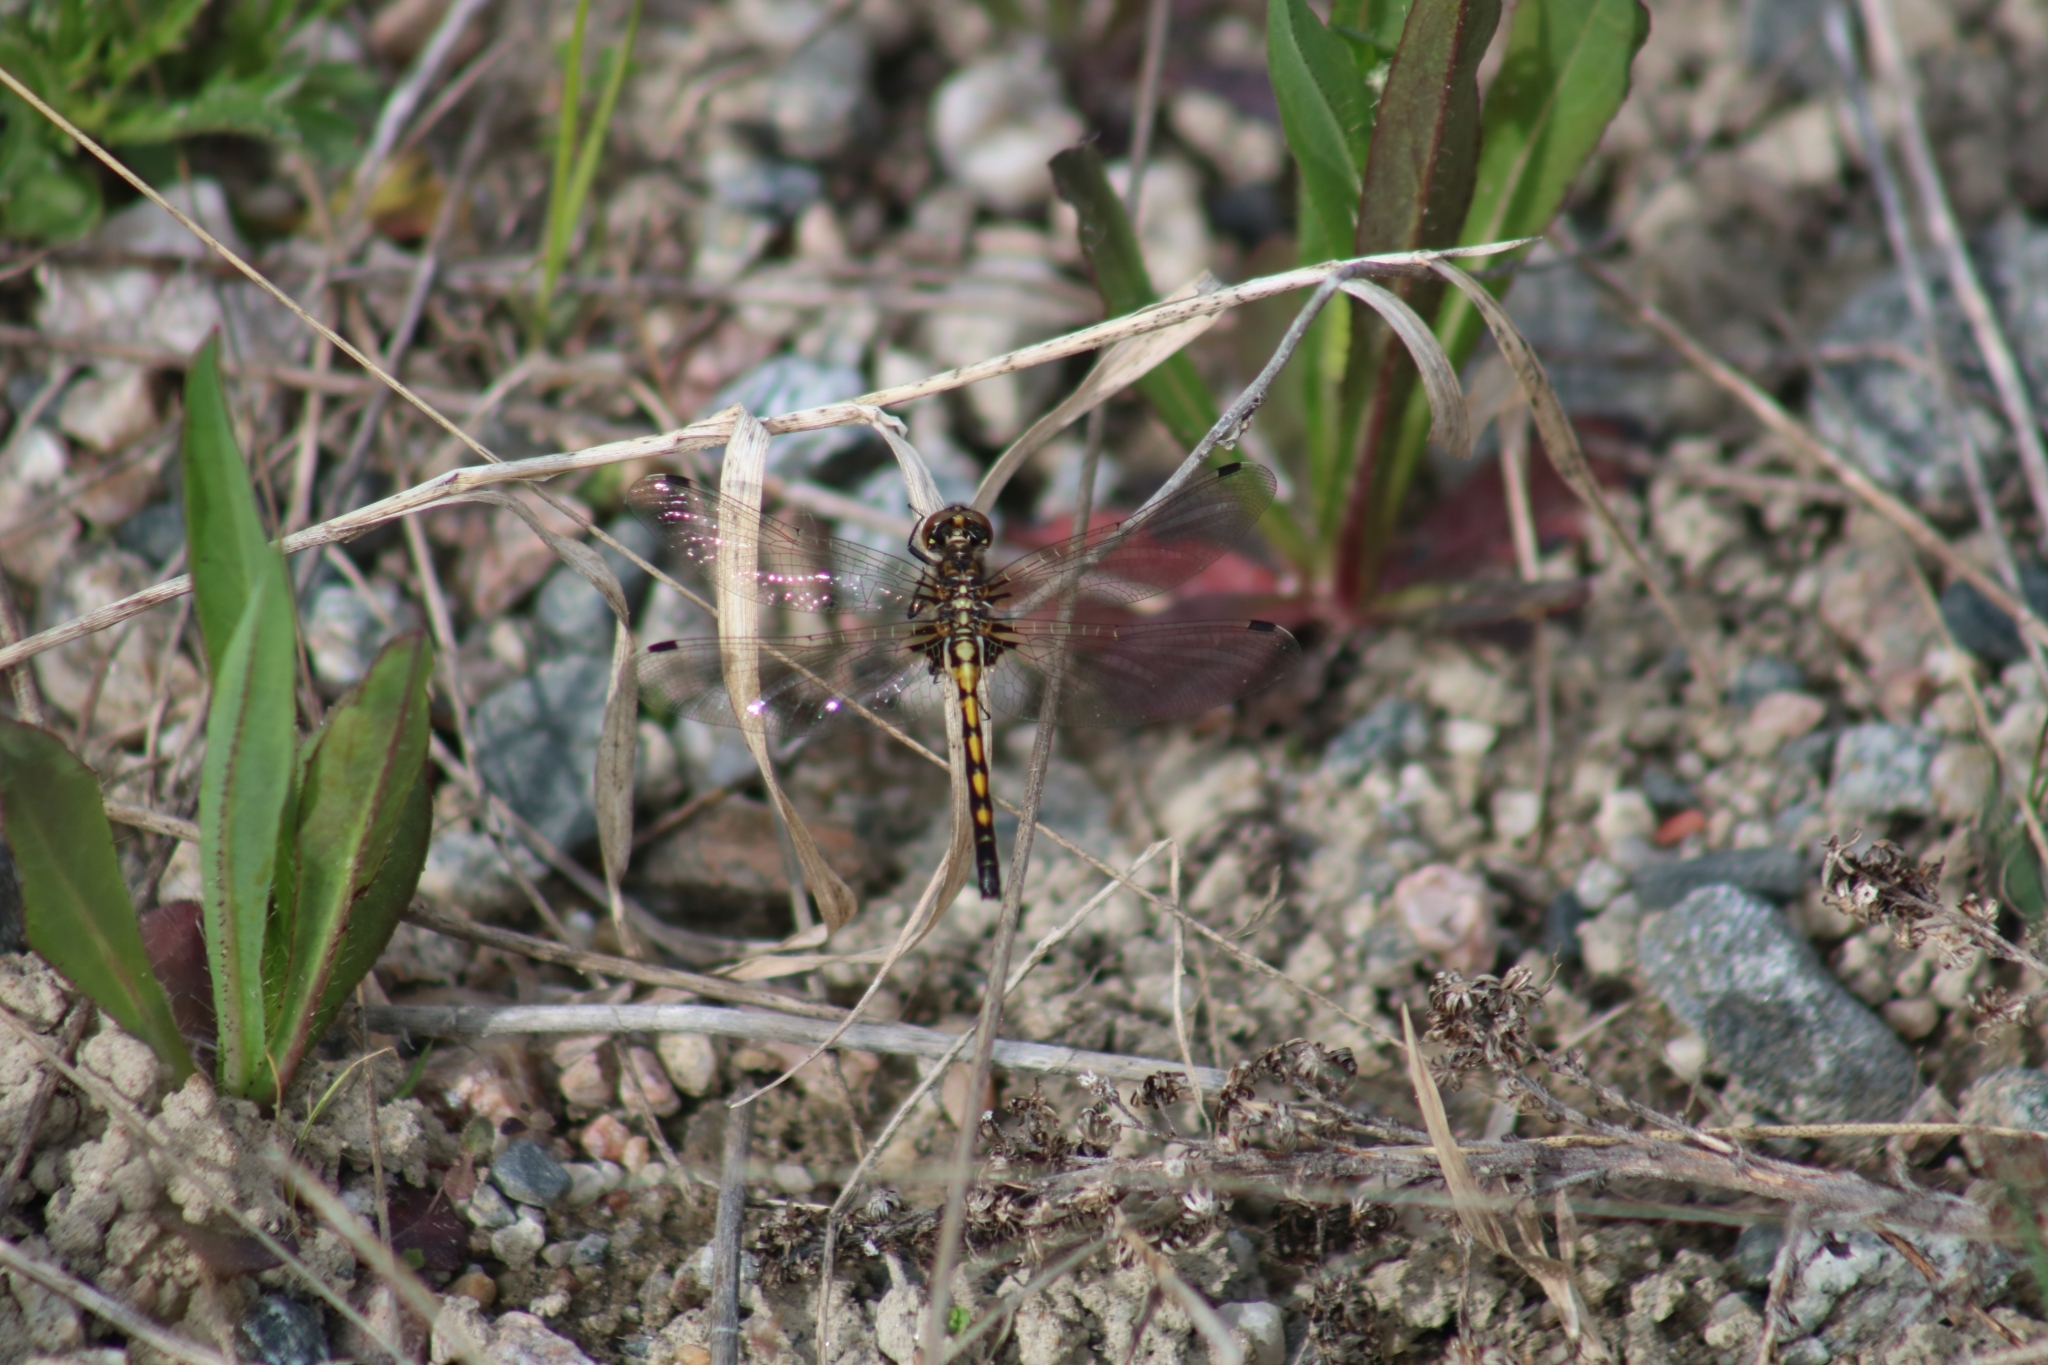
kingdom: Animalia
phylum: Arthropoda
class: Insecta
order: Odonata
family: Libellulidae
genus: Leucorrhinia
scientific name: Leucorrhinia hudsonica
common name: Hudsonian whiteface
